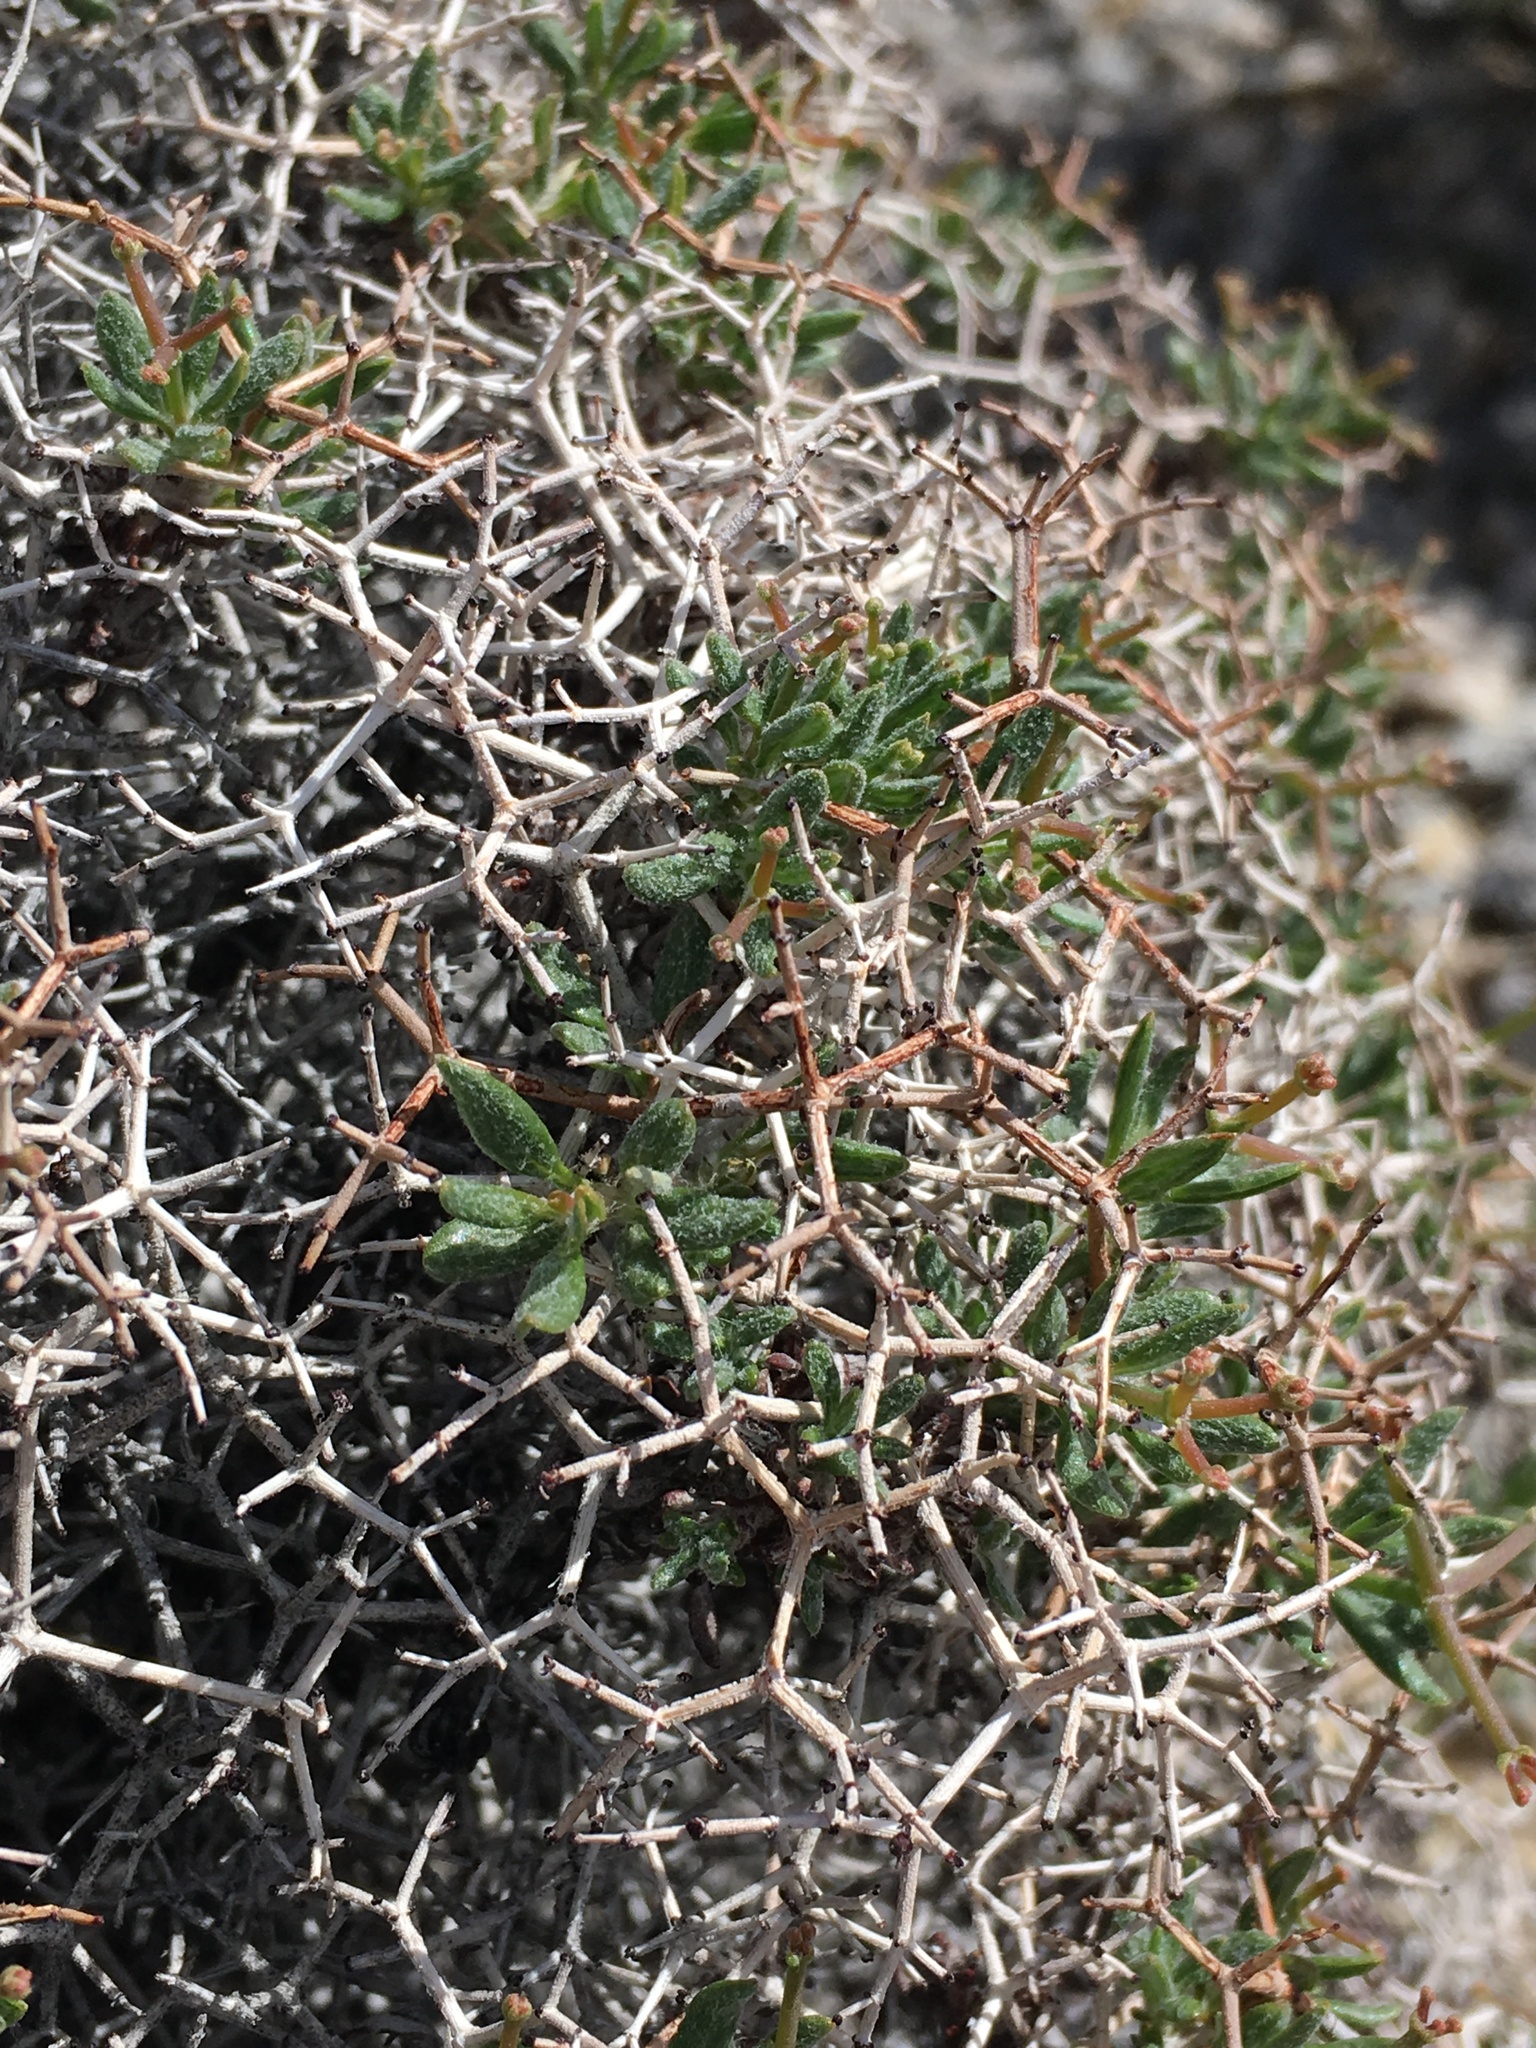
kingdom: Plantae
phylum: Tracheophyta
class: Magnoliopsida
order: Caryophyllales
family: Polygonaceae
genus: Eriogonum
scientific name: Eriogonum heermannii
